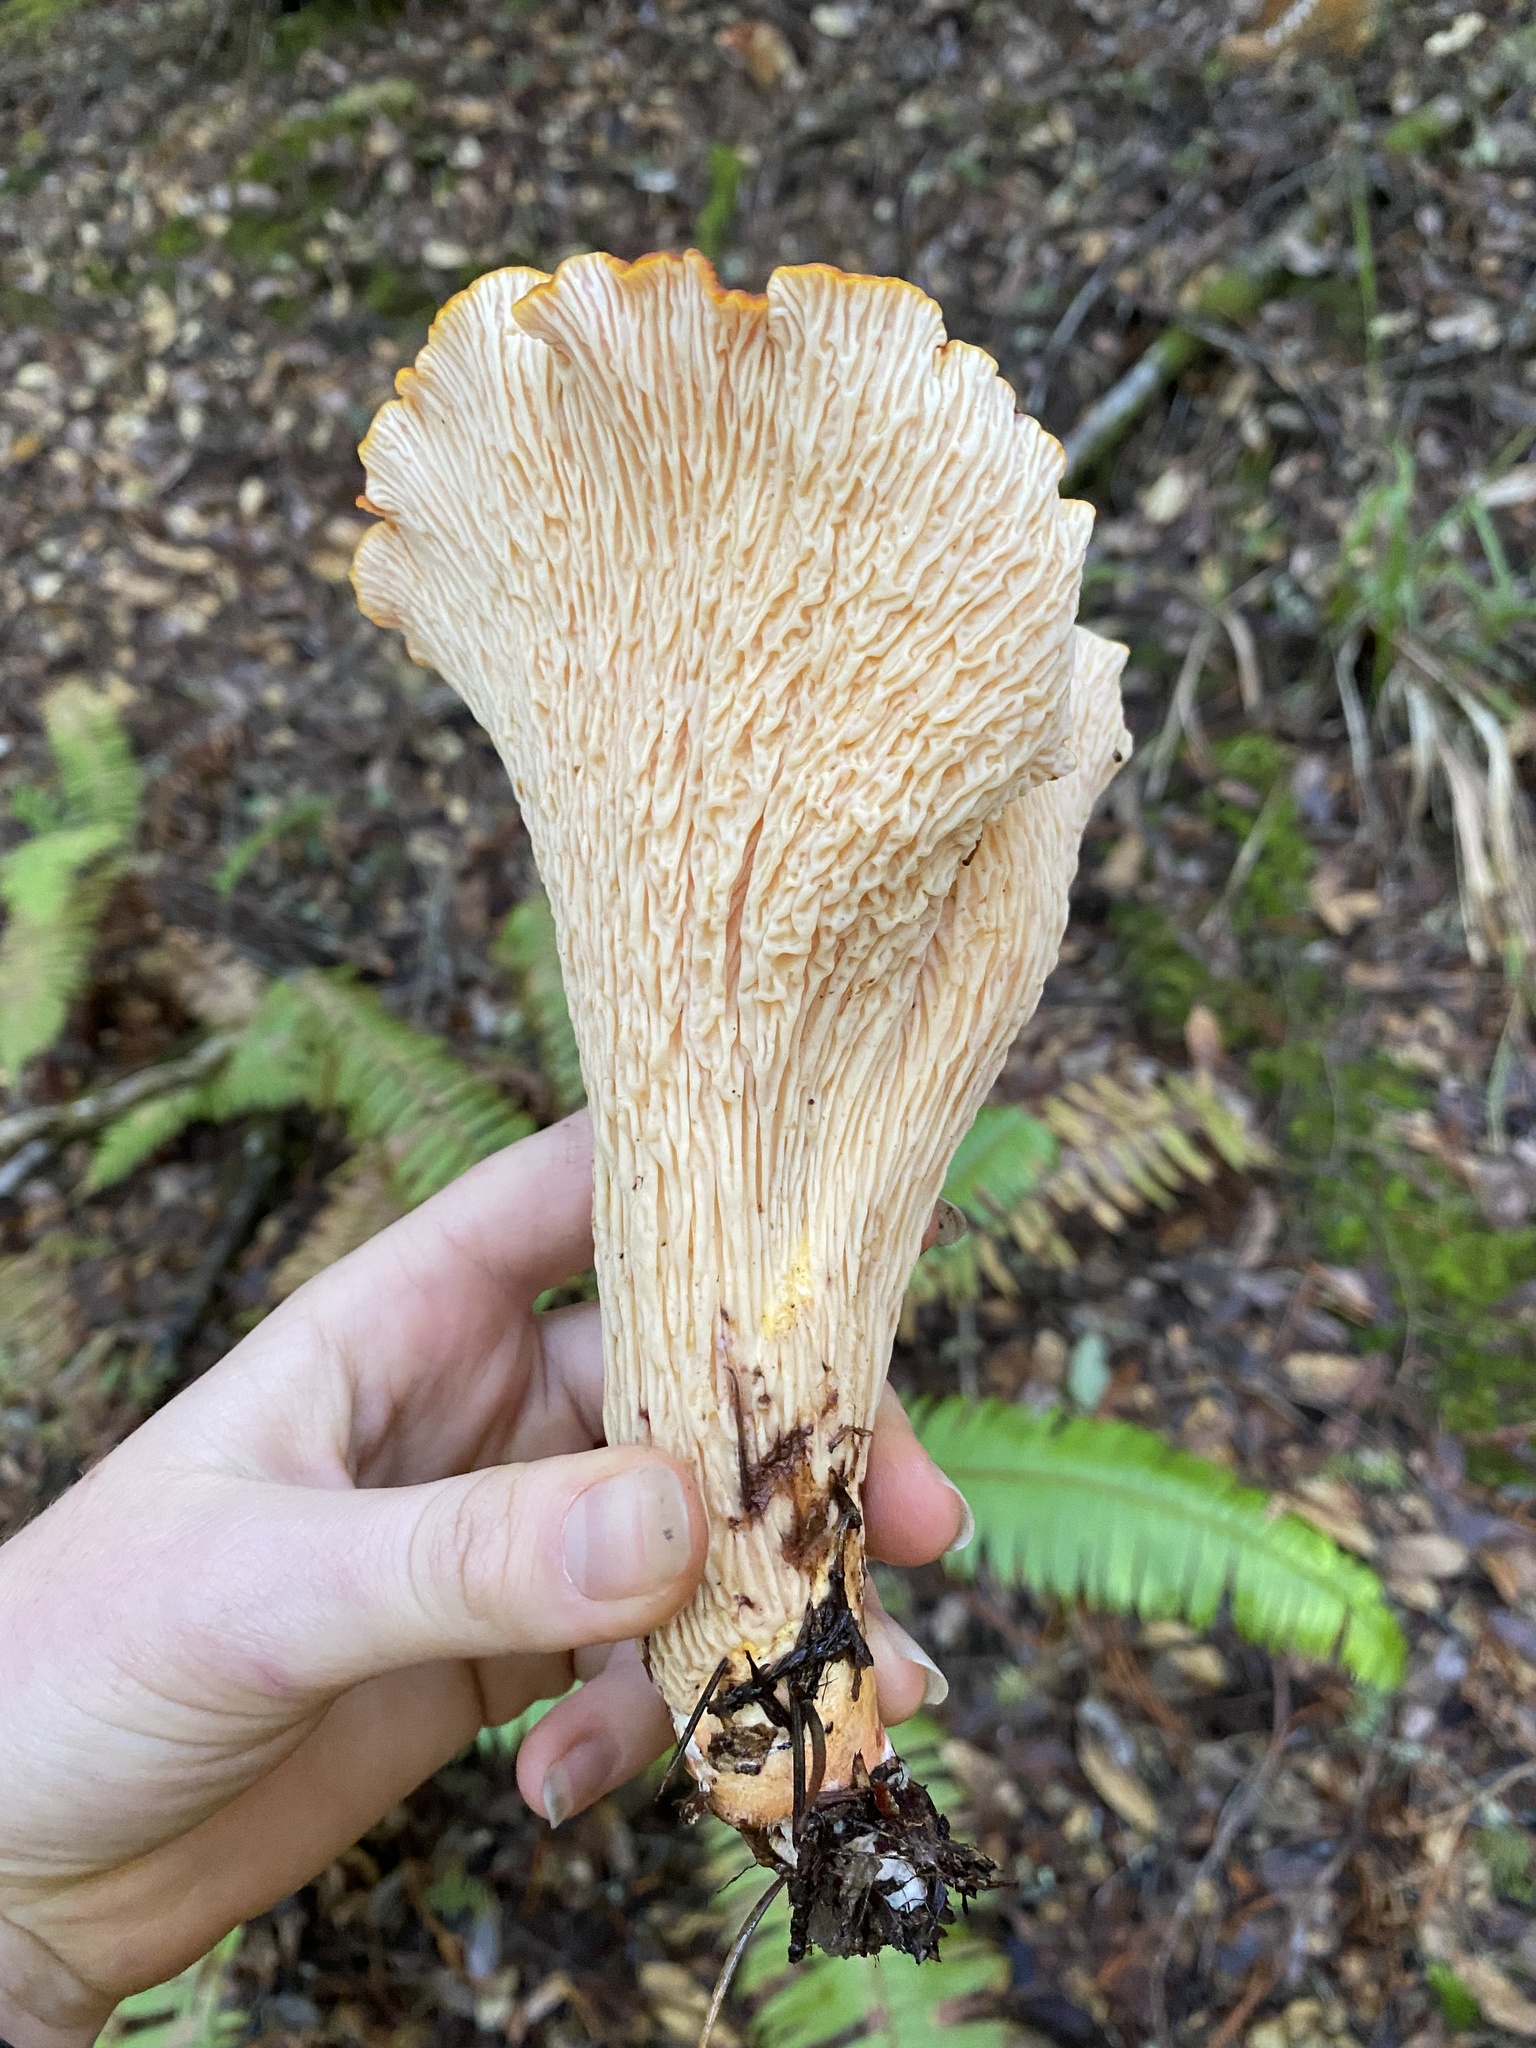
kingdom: Fungi
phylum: Basidiomycota
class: Agaricomycetes
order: Gomphales
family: Gomphaceae
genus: Turbinellus
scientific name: Turbinellus floccosus
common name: Scaly chanterelle
